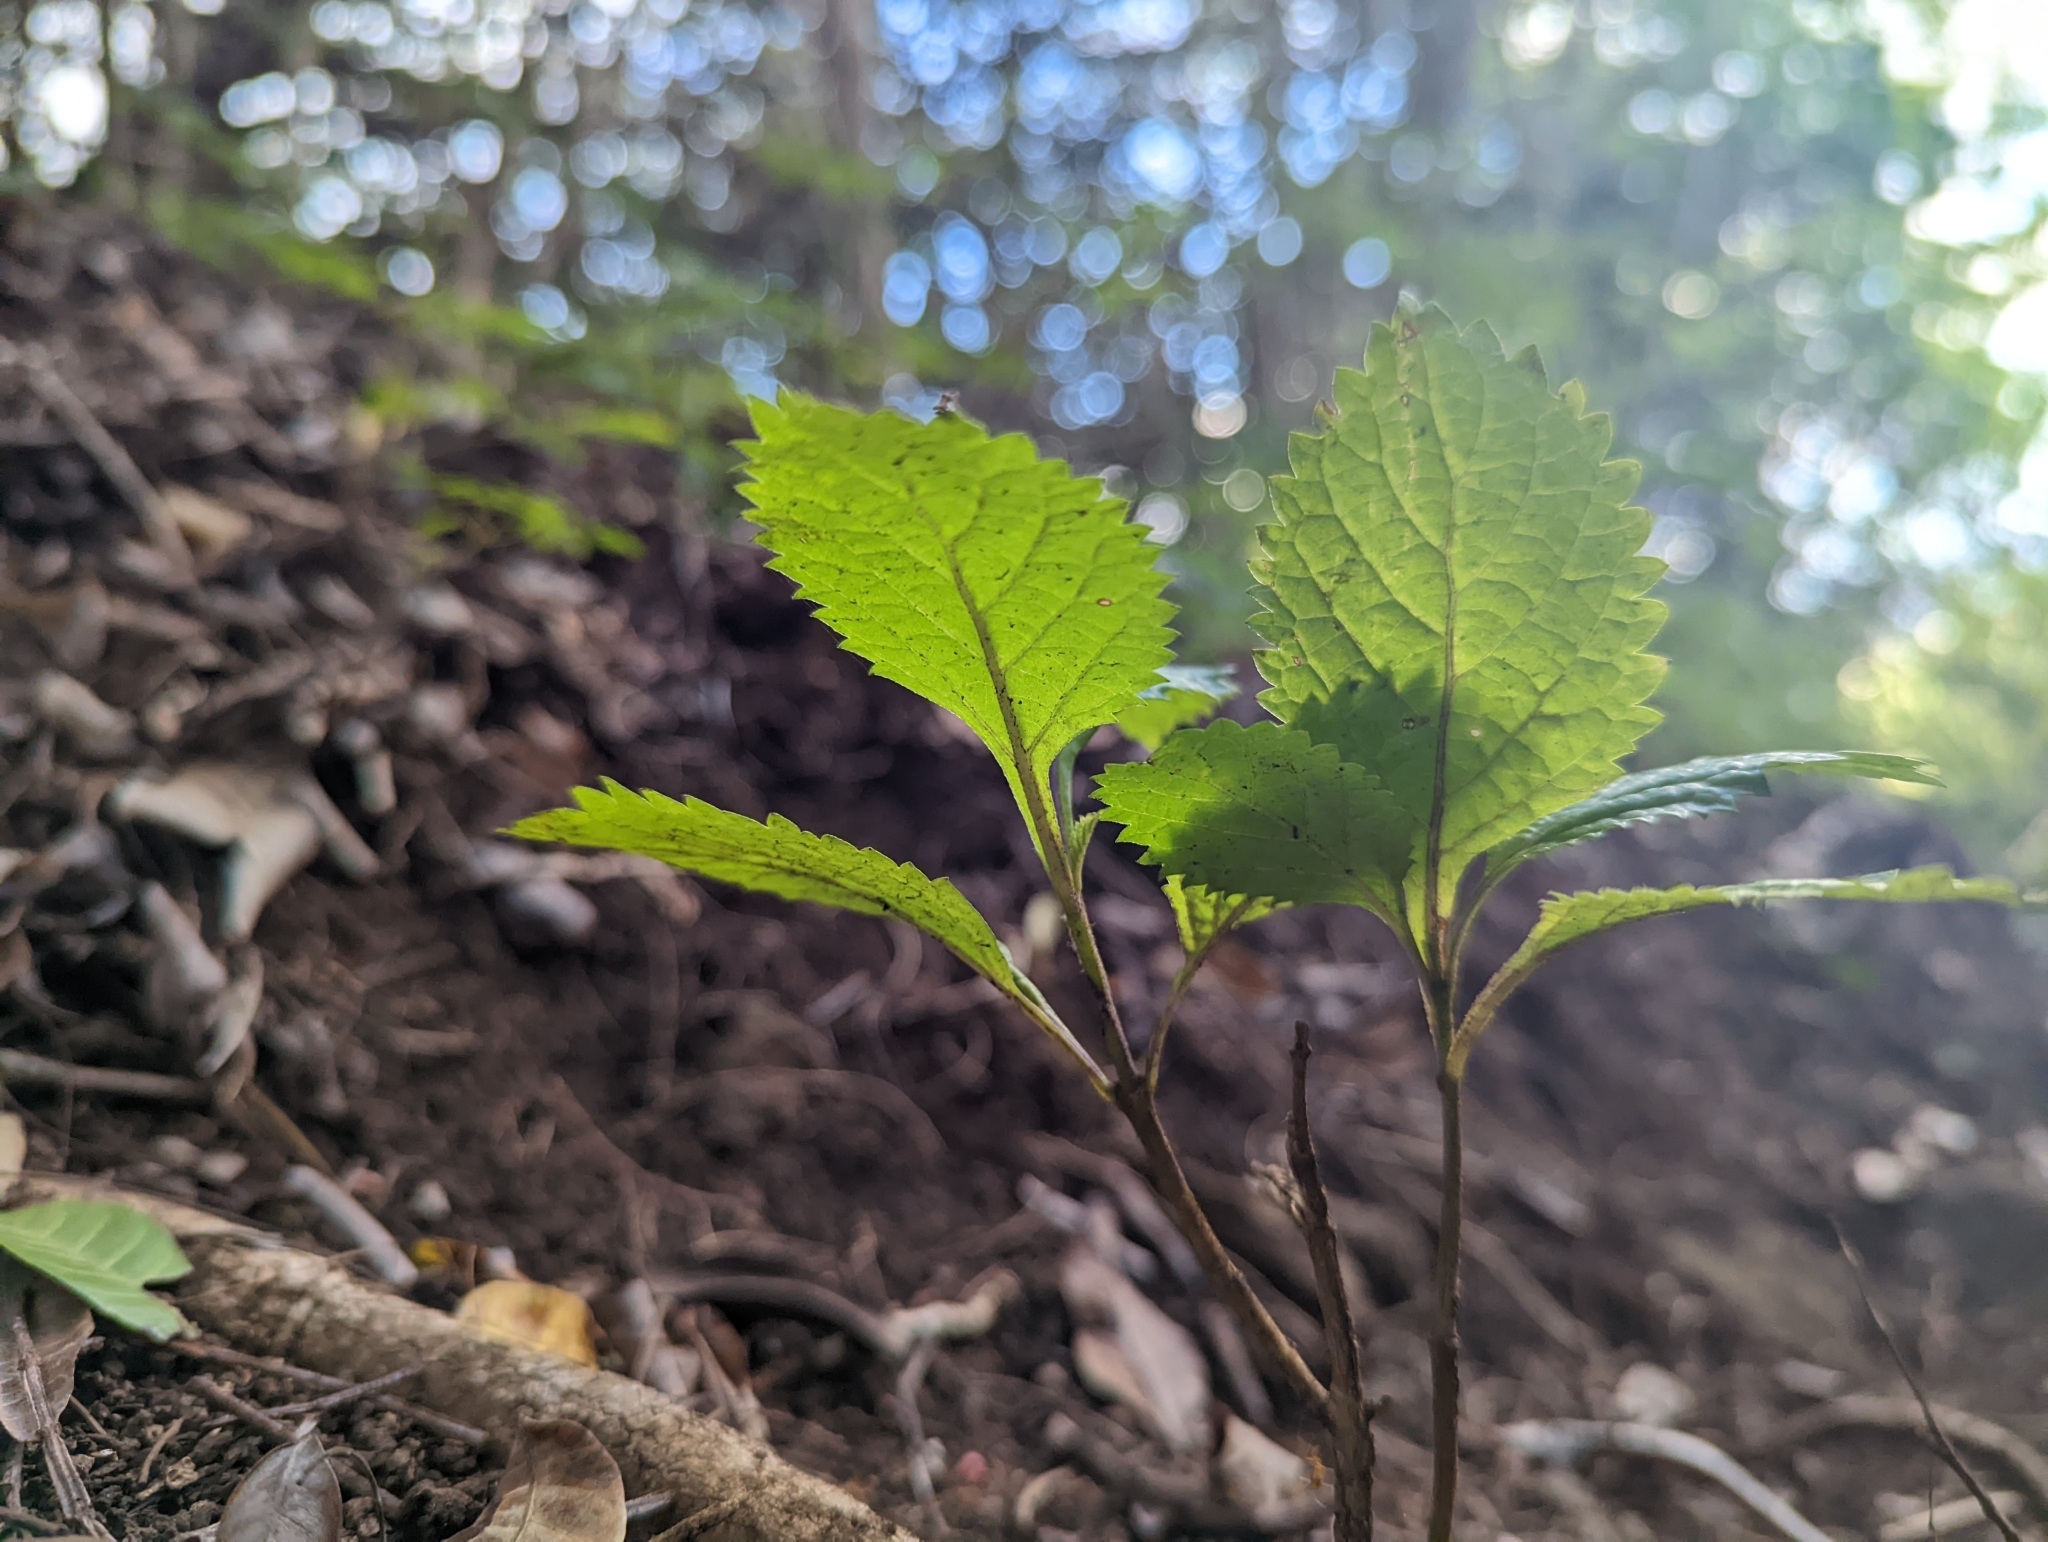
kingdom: Plantae
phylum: Tracheophyta
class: Magnoliopsida
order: Lamiales
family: Verbenaceae
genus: Stachytarpheta
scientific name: Stachytarpheta cayennensis
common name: Cayenne porterweed
